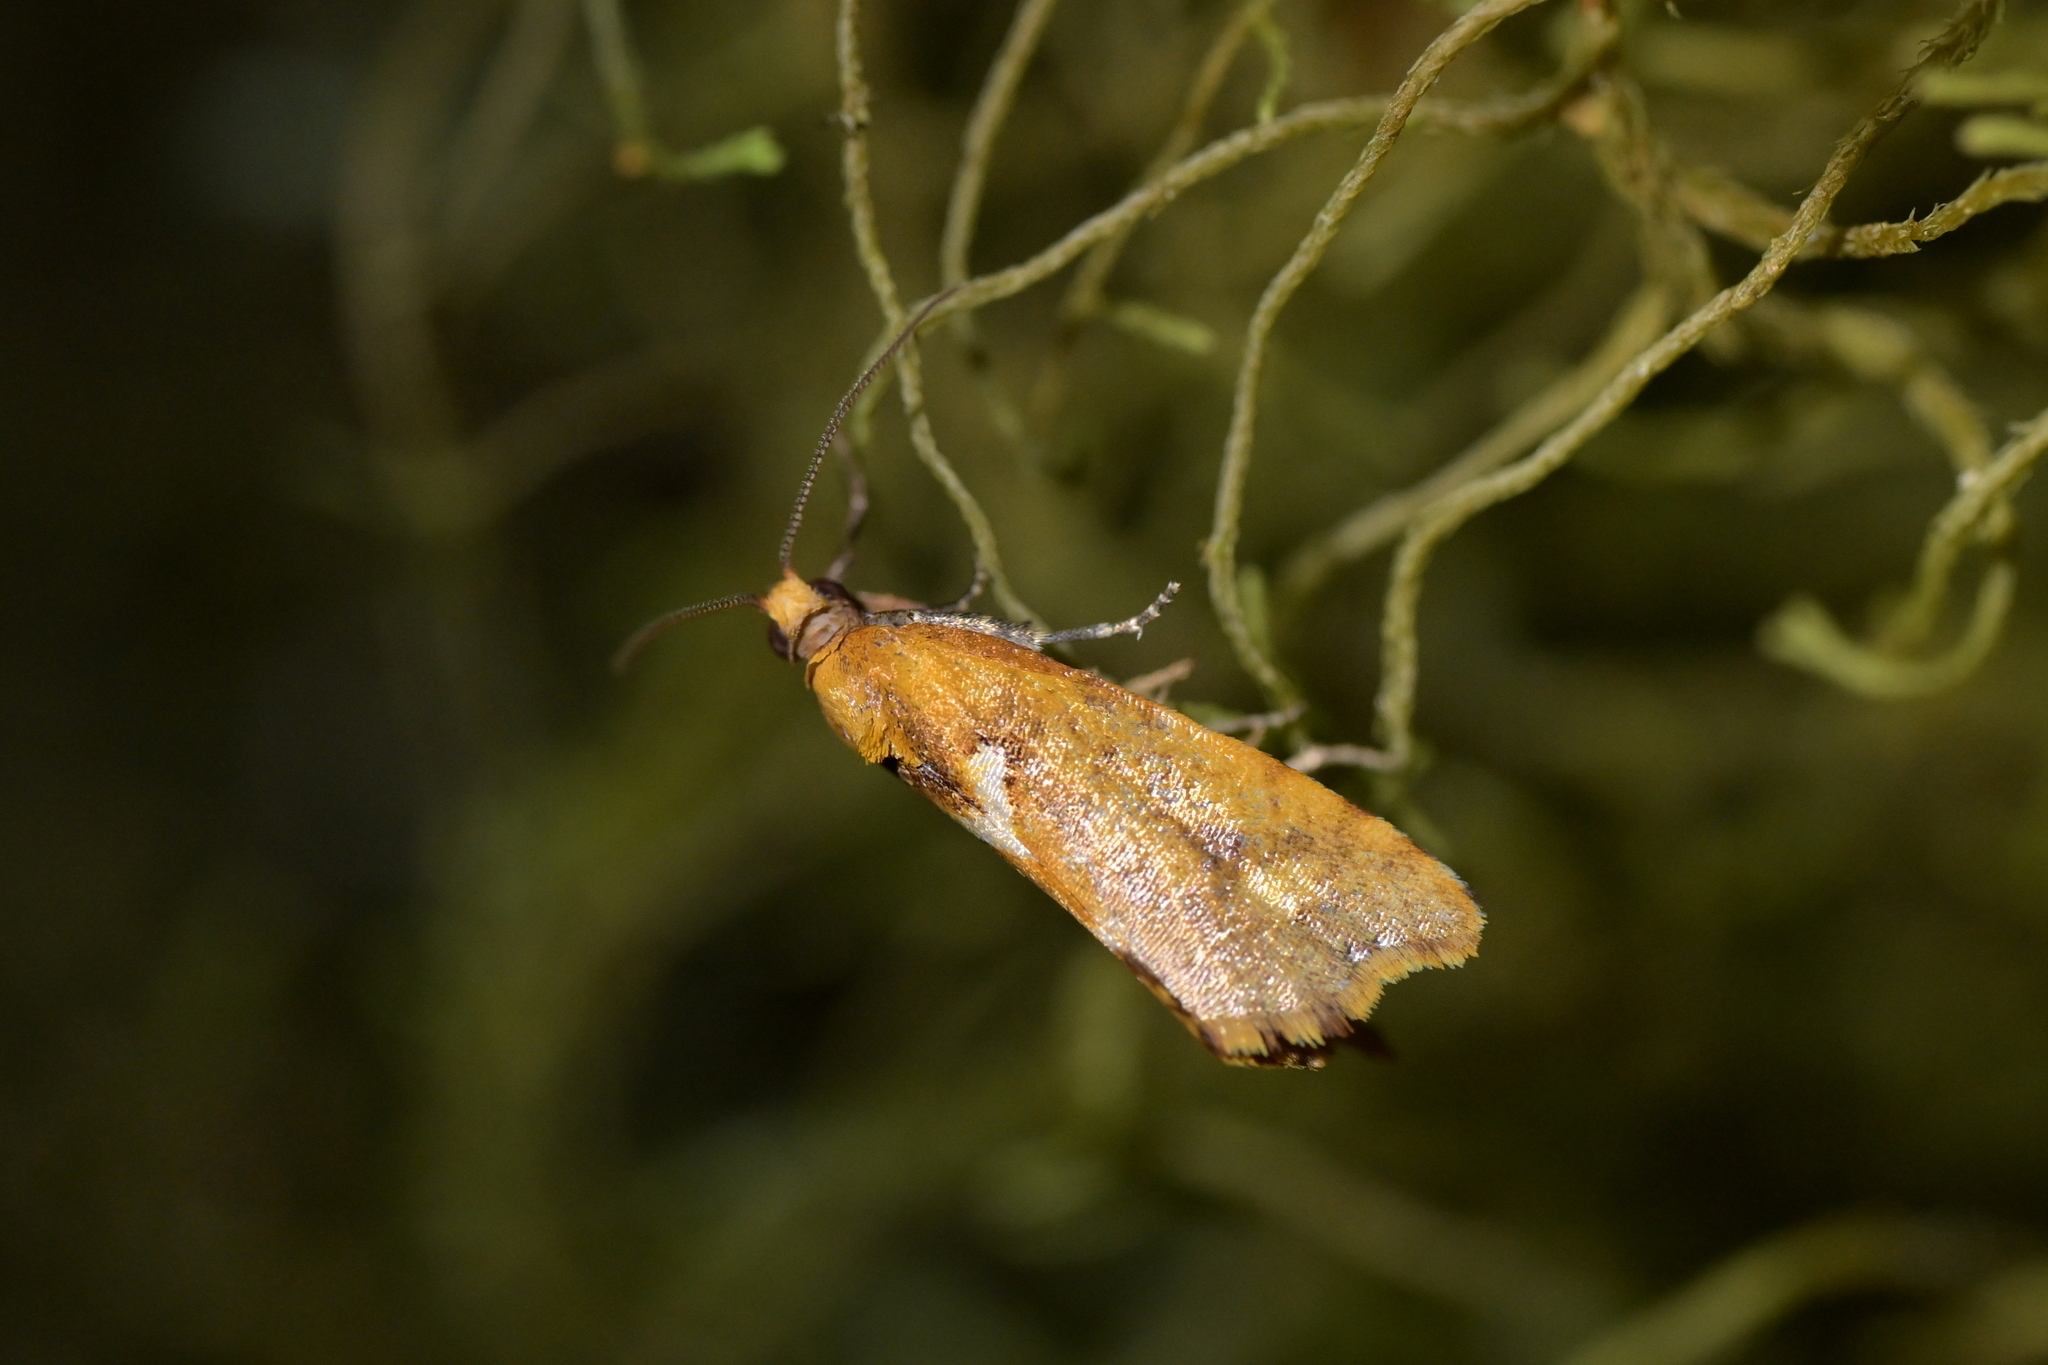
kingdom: Animalia
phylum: Arthropoda
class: Insecta
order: Lepidoptera
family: Tortricidae
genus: Pyrgotis
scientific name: Pyrgotis pyramidias
